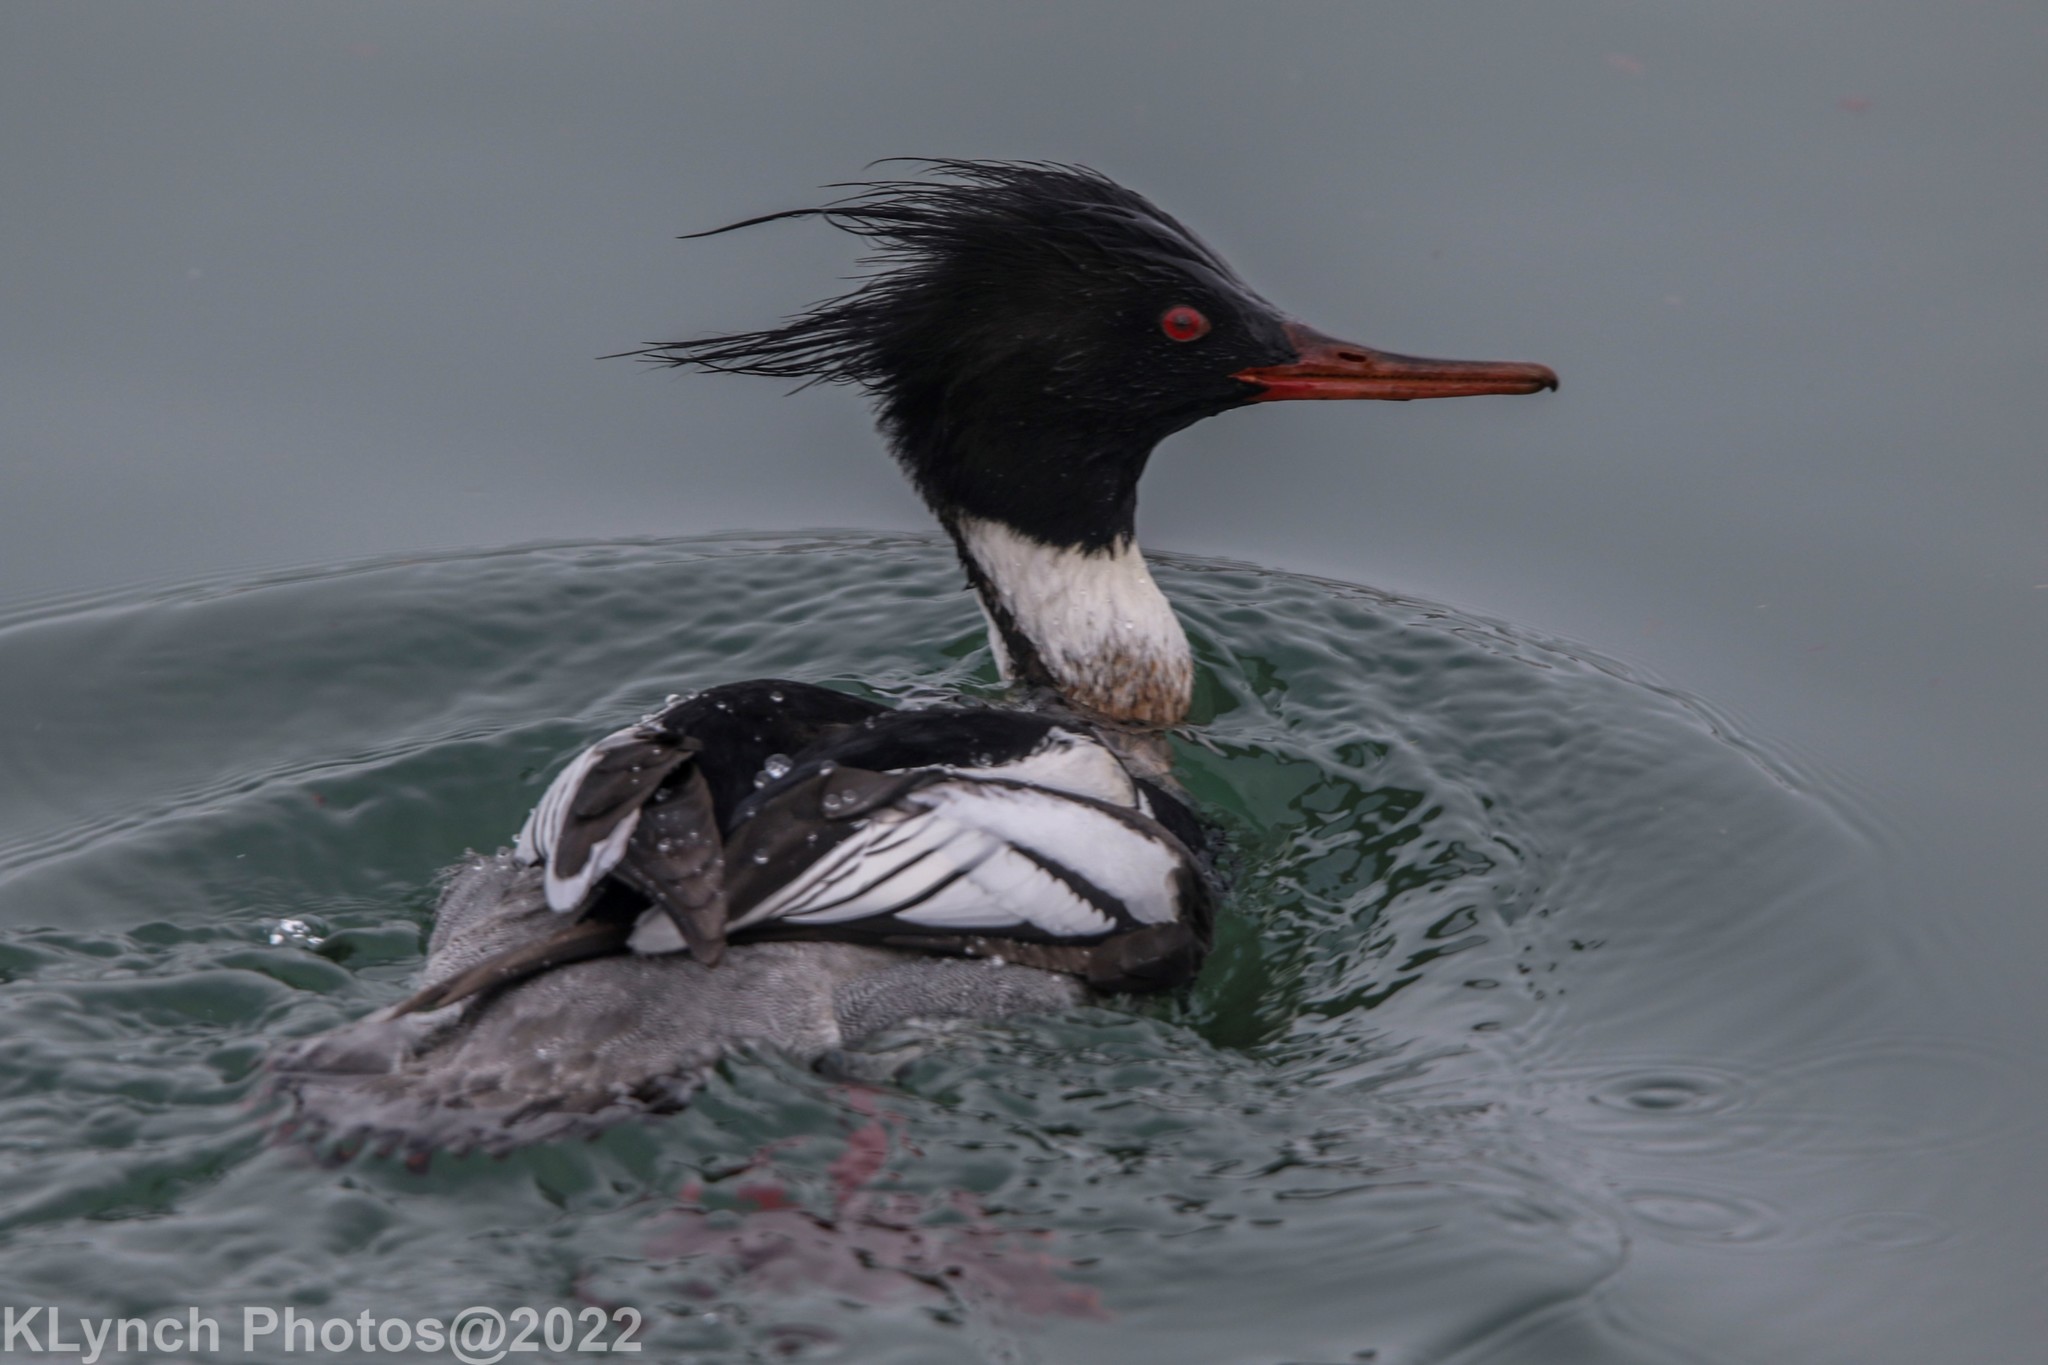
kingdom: Animalia
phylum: Chordata
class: Aves
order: Anseriformes
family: Anatidae
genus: Mergus
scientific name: Mergus serrator
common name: Red-breasted merganser
